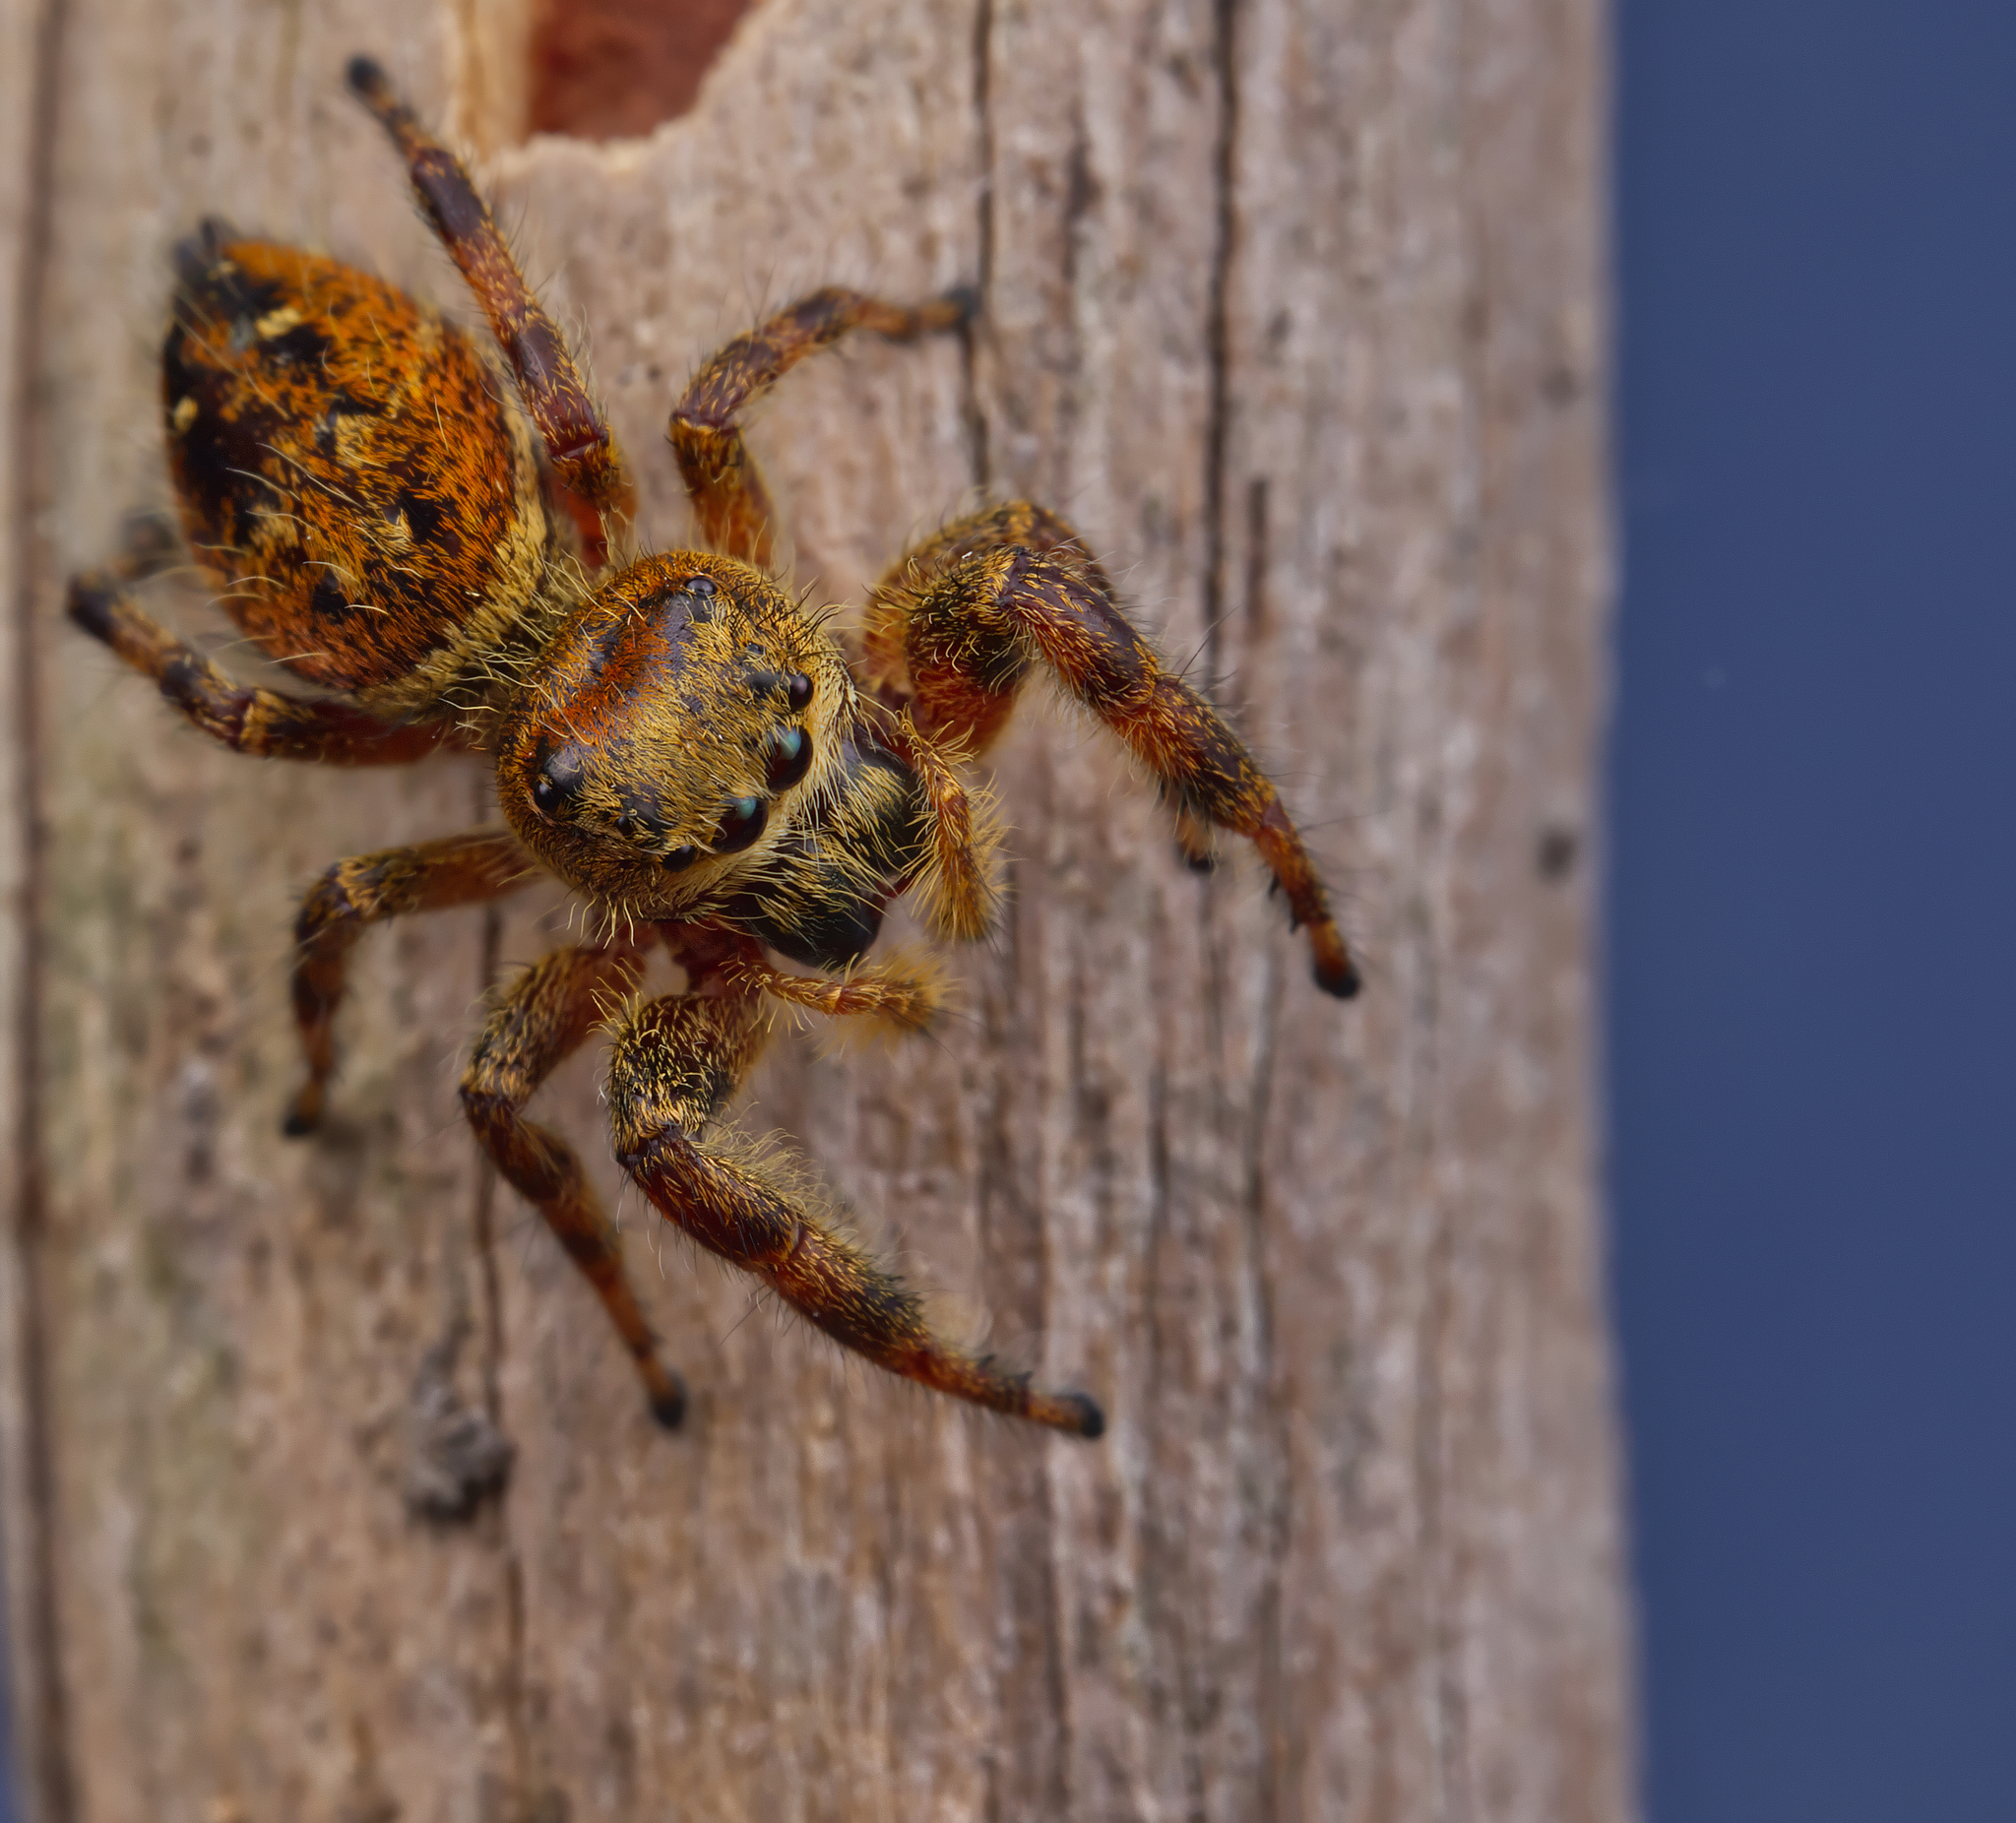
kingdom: Animalia
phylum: Arthropoda
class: Arachnida
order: Araneae
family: Salticidae
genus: Phidippus
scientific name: Phidippus clarus
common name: Brilliant jumping spider
